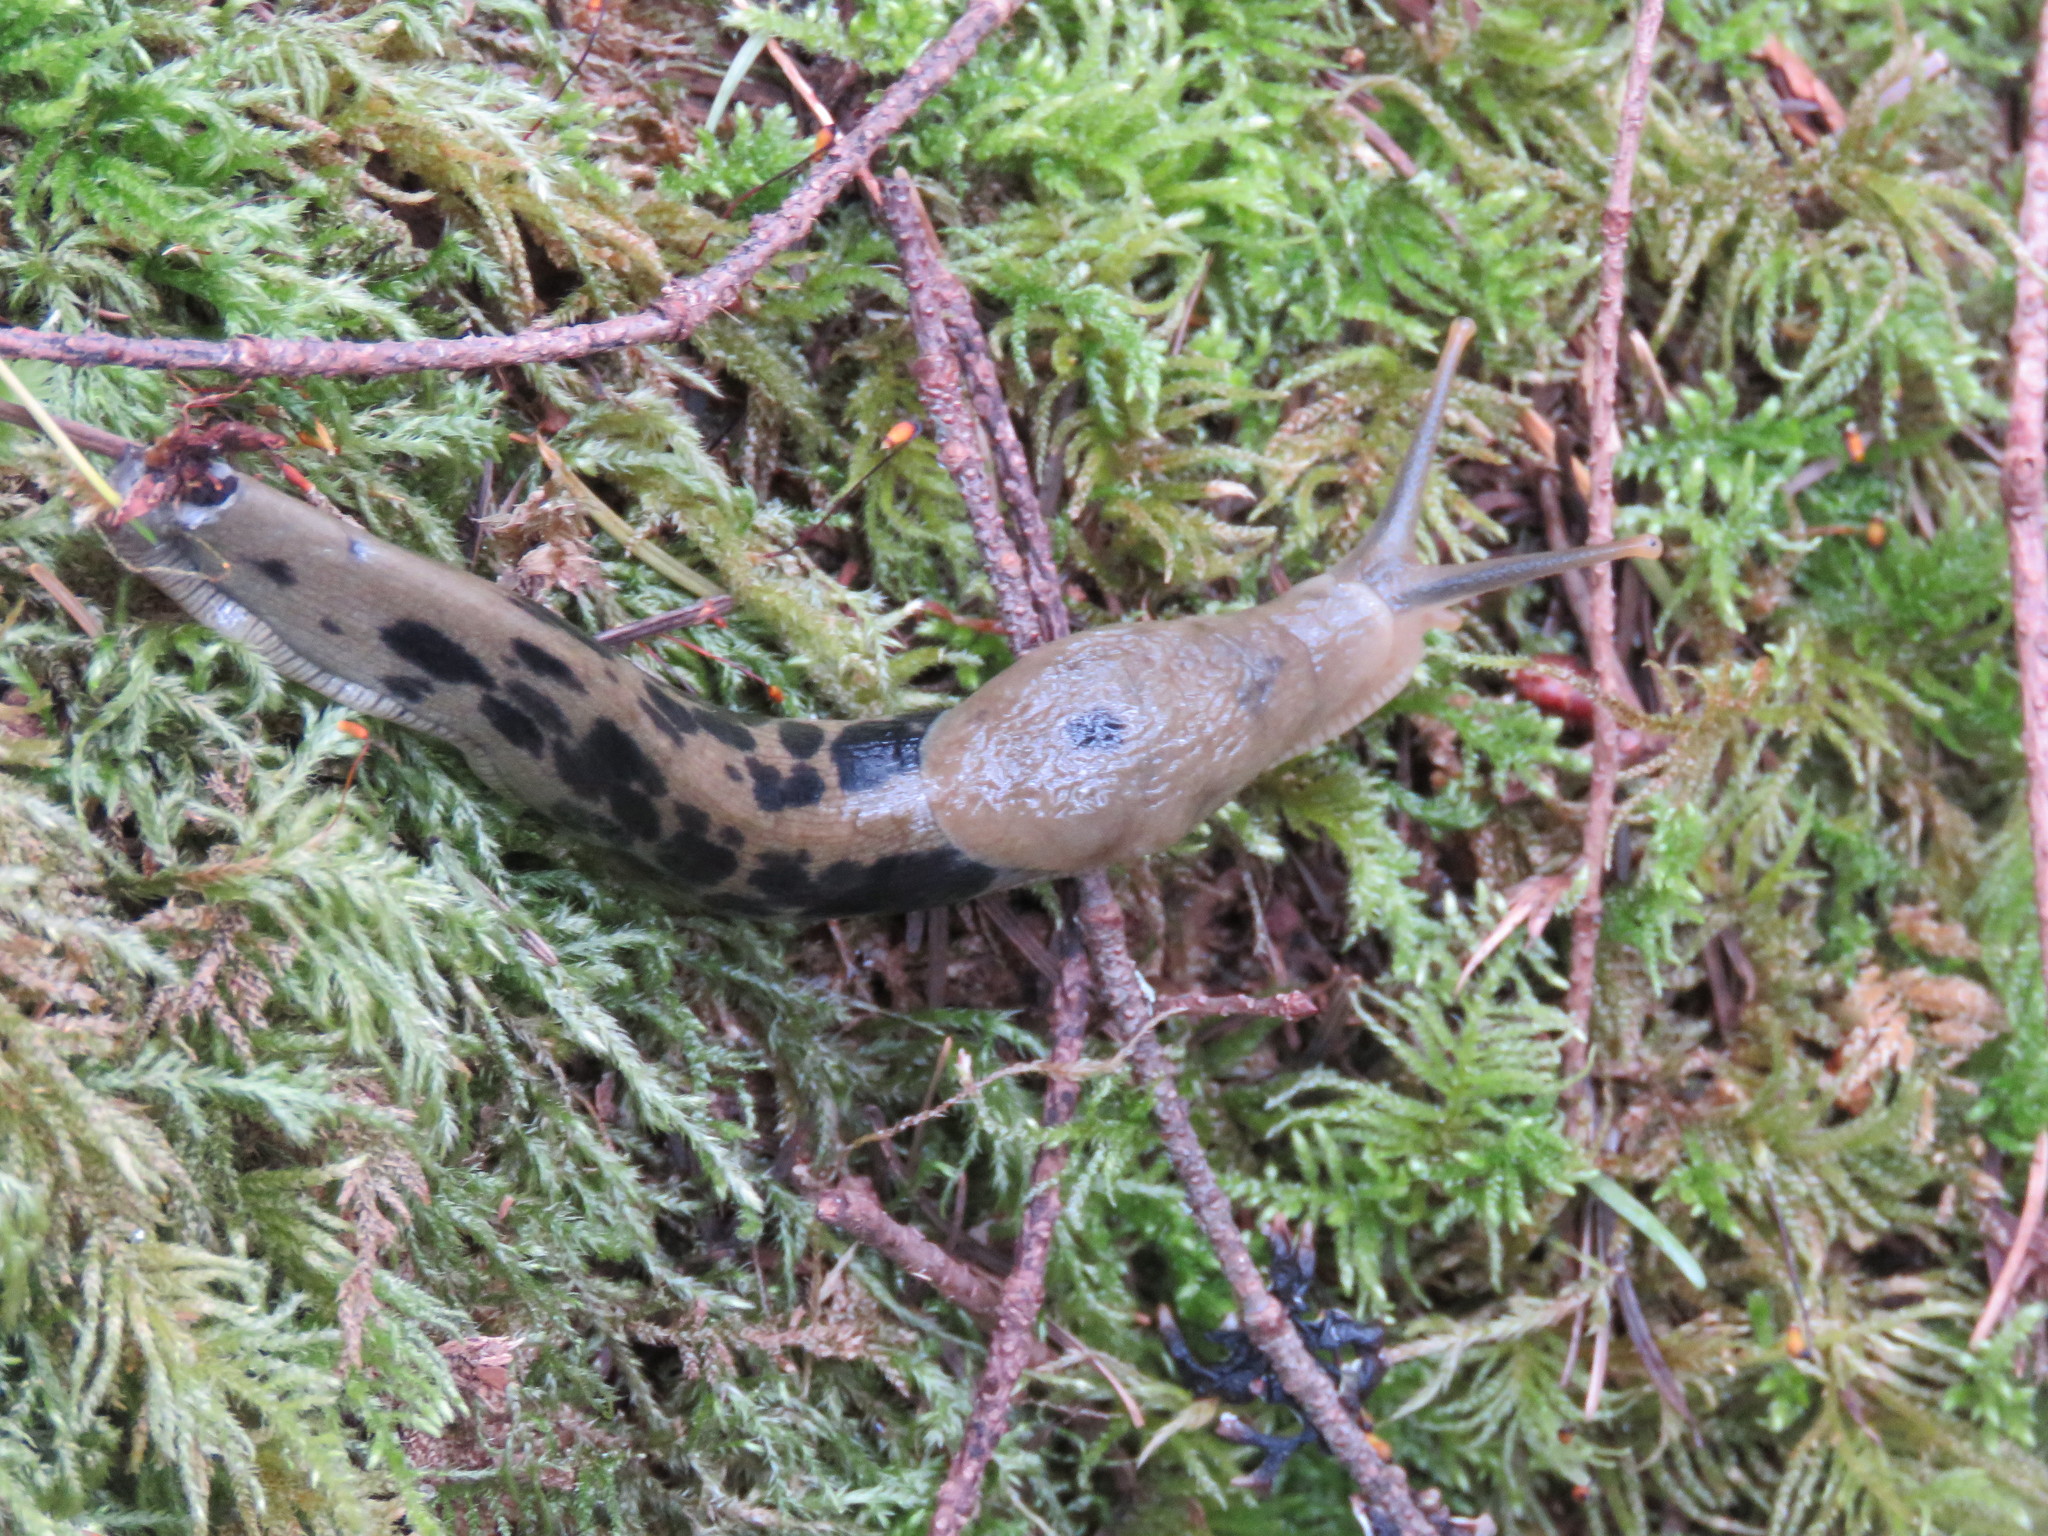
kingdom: Animalia
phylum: Mollusca
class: Gastropoda
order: Stylommatophora
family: Ariolimacidae
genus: Ariolimax
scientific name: Ariolimax columbianus
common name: Pacific banana slug
